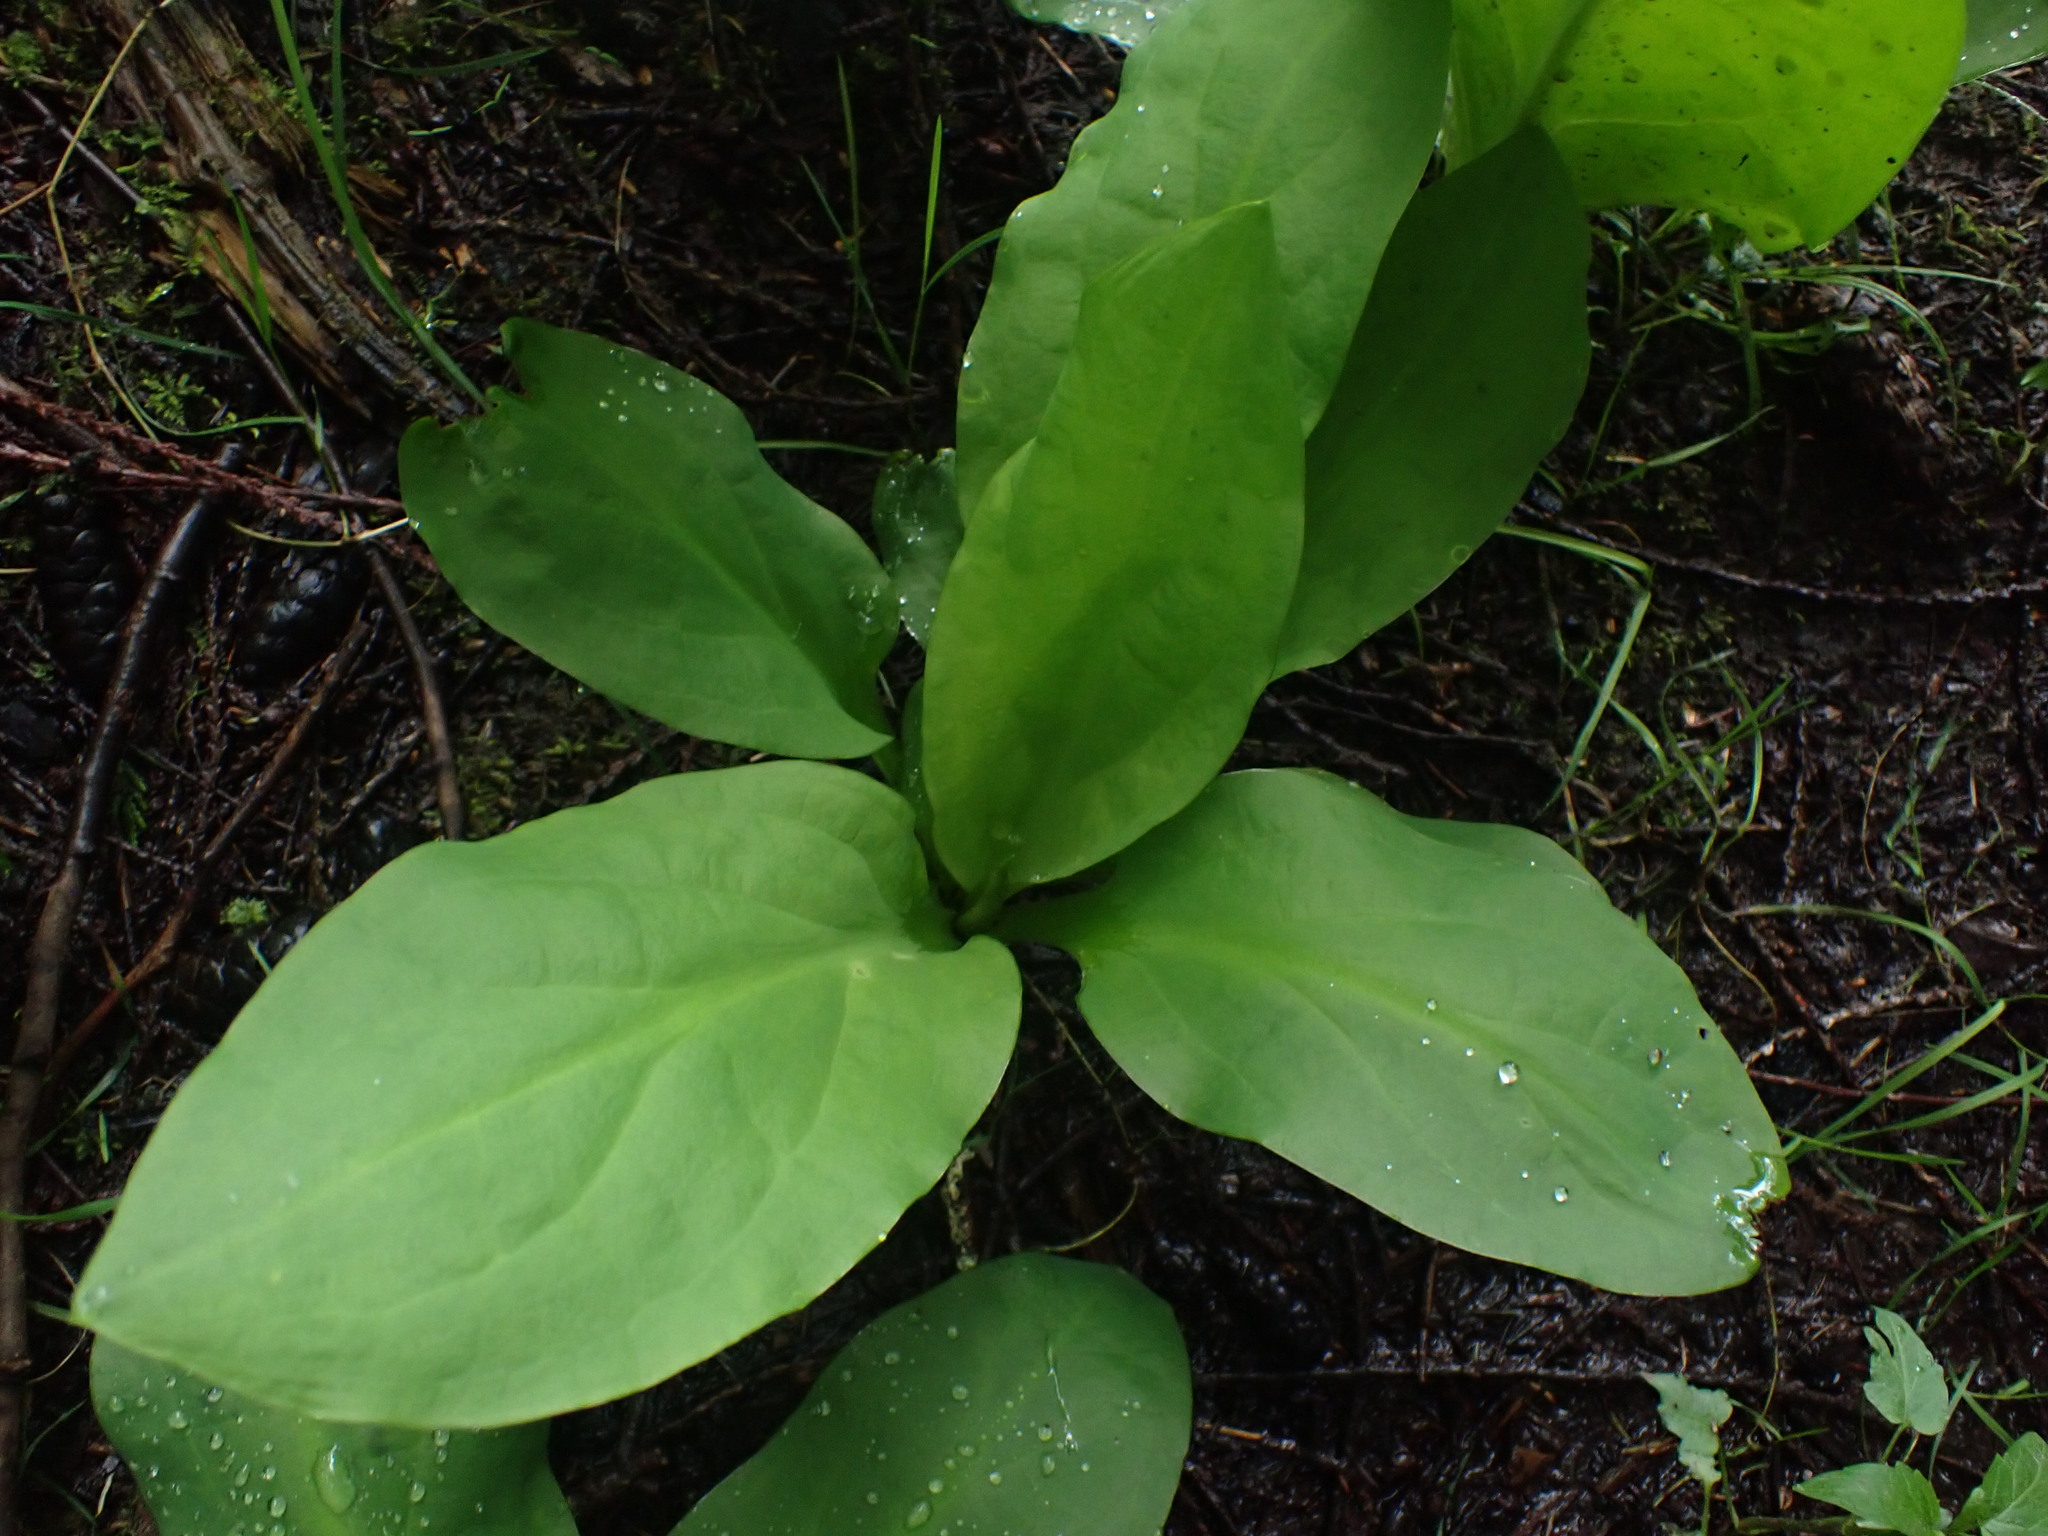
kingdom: Plantae
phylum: Tracheophyta
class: Liliopsida
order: Alismatales
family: Araceae
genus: Lysichiton
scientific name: Lysichiton americanus
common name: American skunk cabbage
